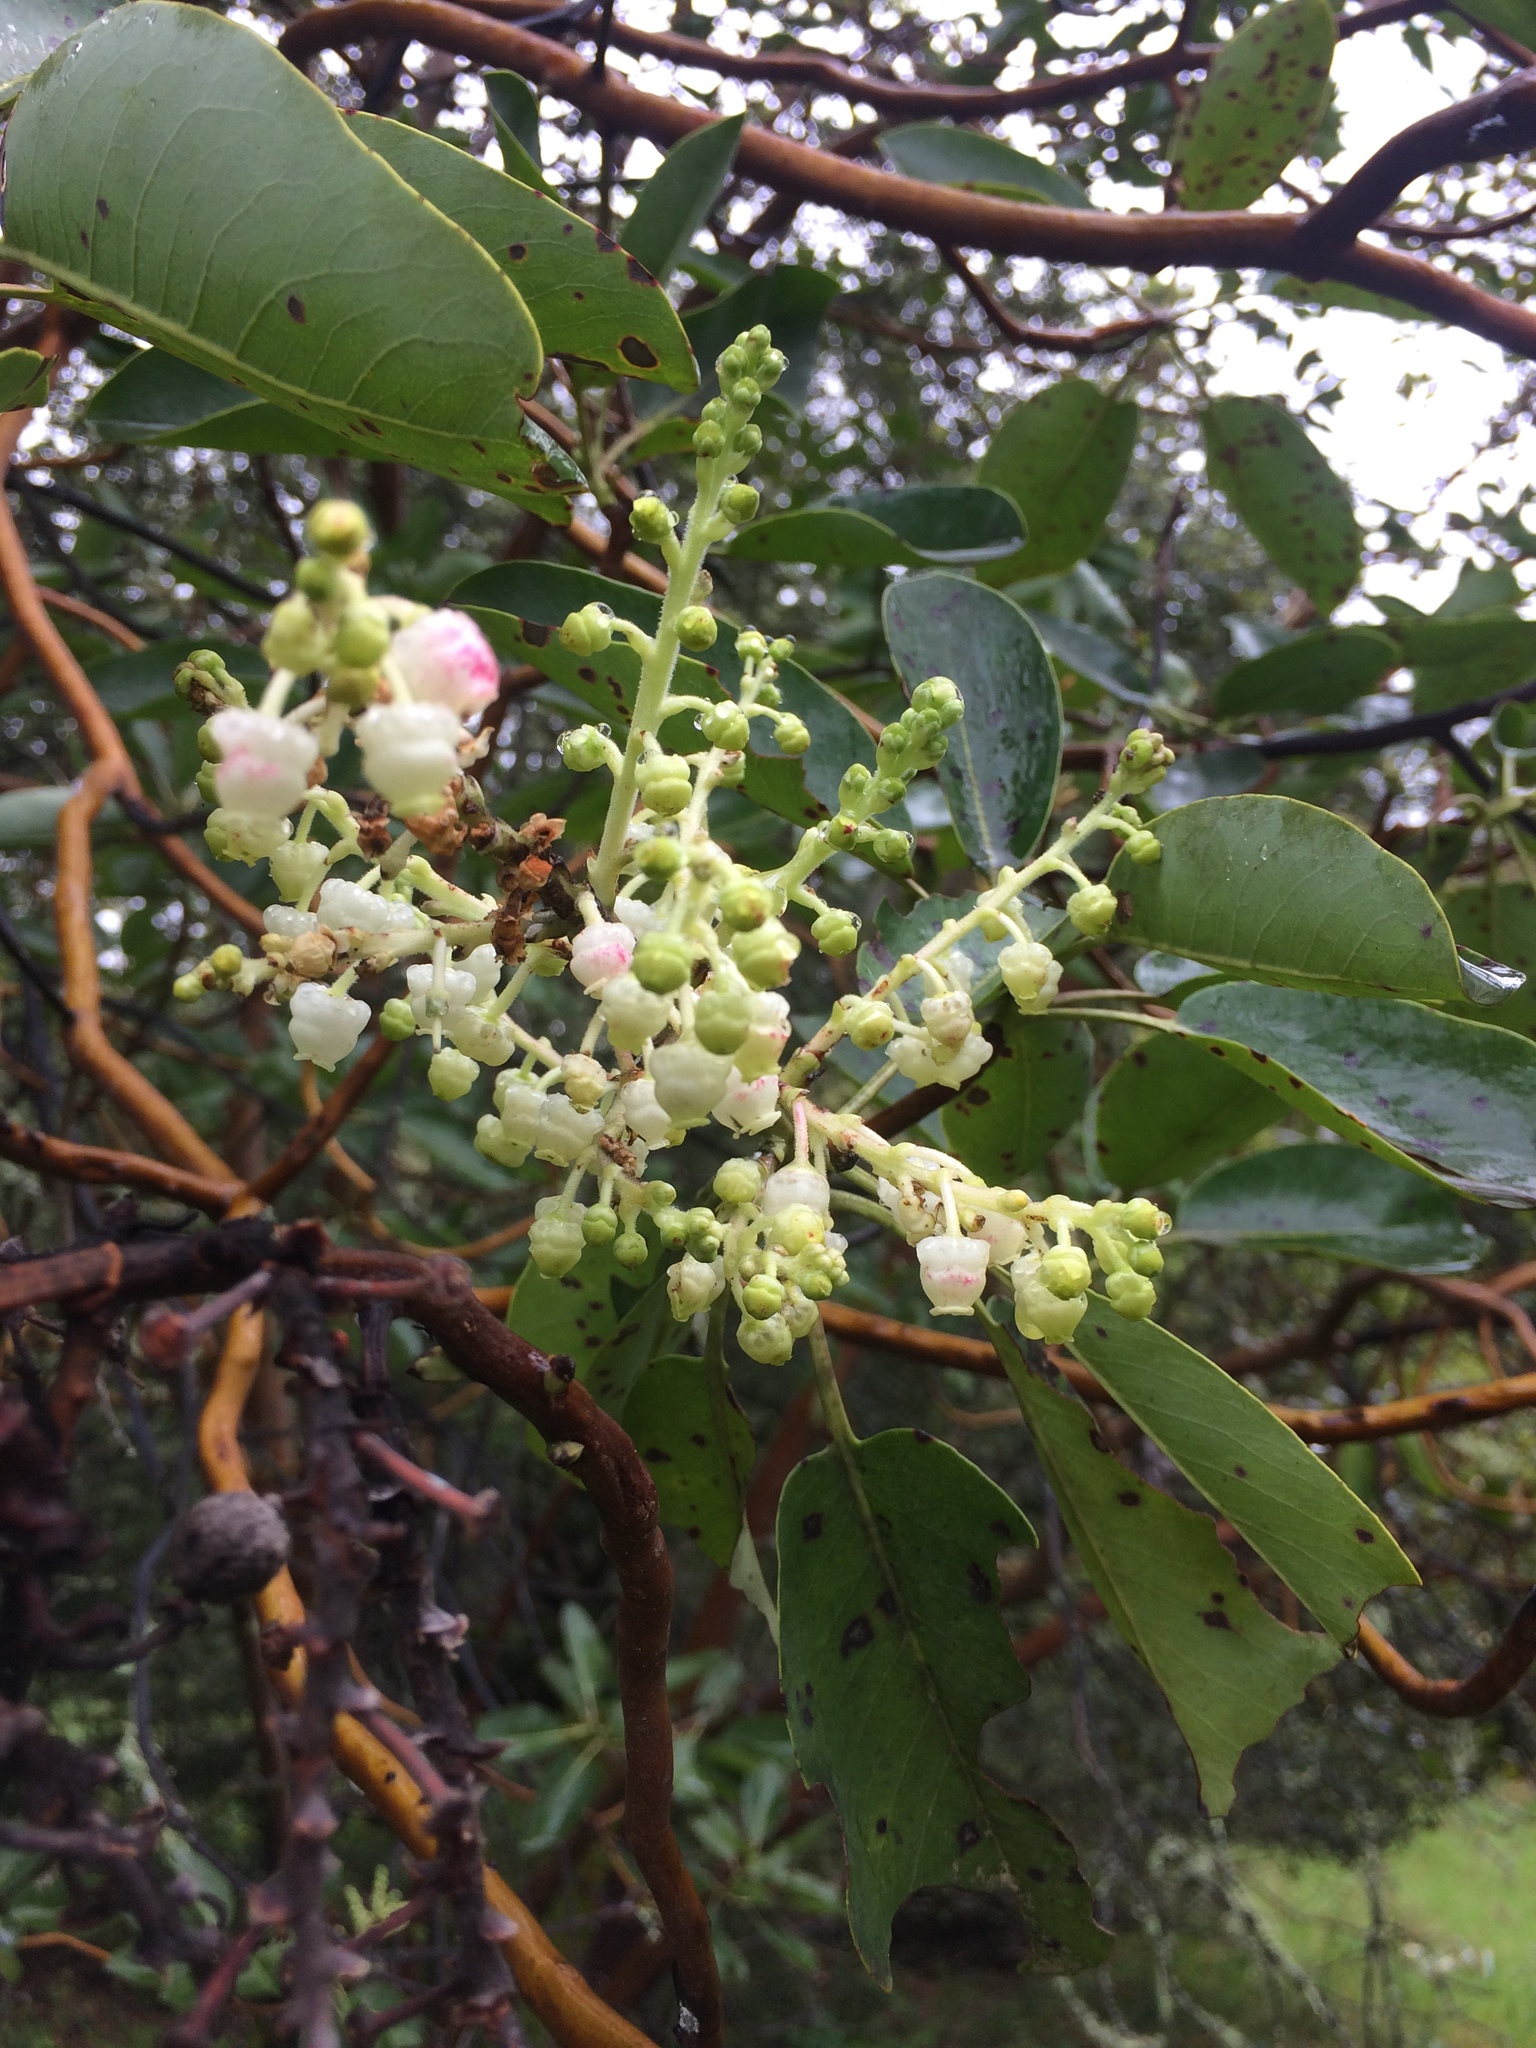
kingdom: Plantae
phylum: Tracheophyta
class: Magnoliopsida
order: Ericales
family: Ericaceae
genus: Arbutus
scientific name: Arbutus menziesii
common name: Pacific madrone
